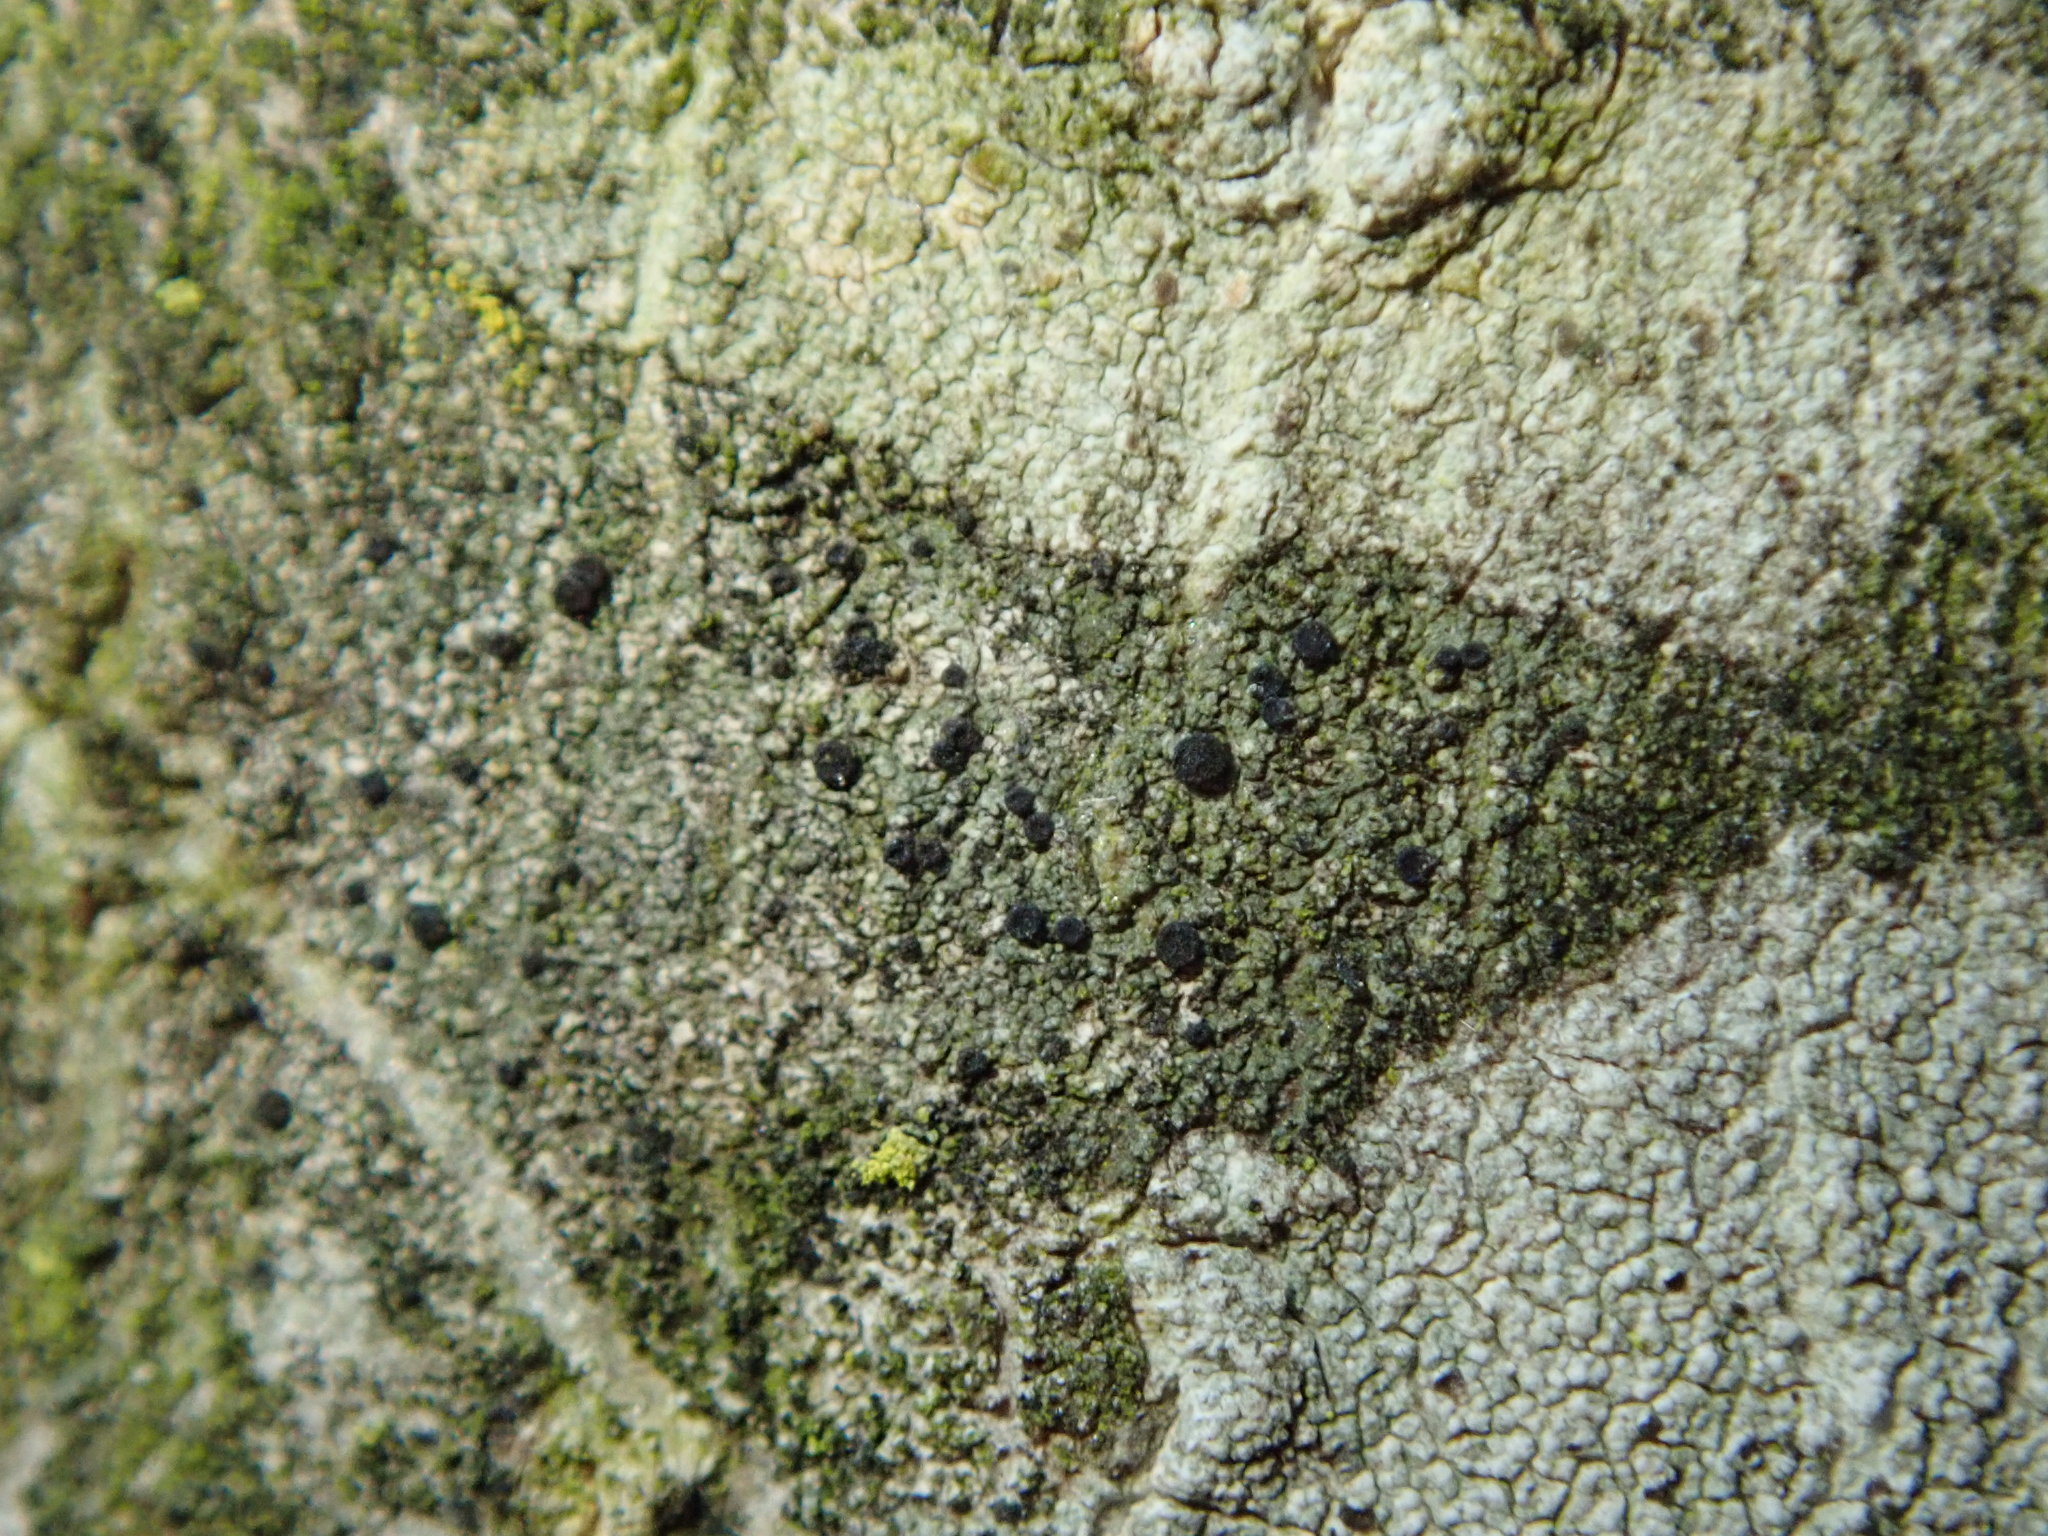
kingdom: Fungi
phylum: Ascomycota
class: Lecanoromycetes
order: Caliciales
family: Physciaceae
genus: Amandinea
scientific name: Amandinea polyspora
